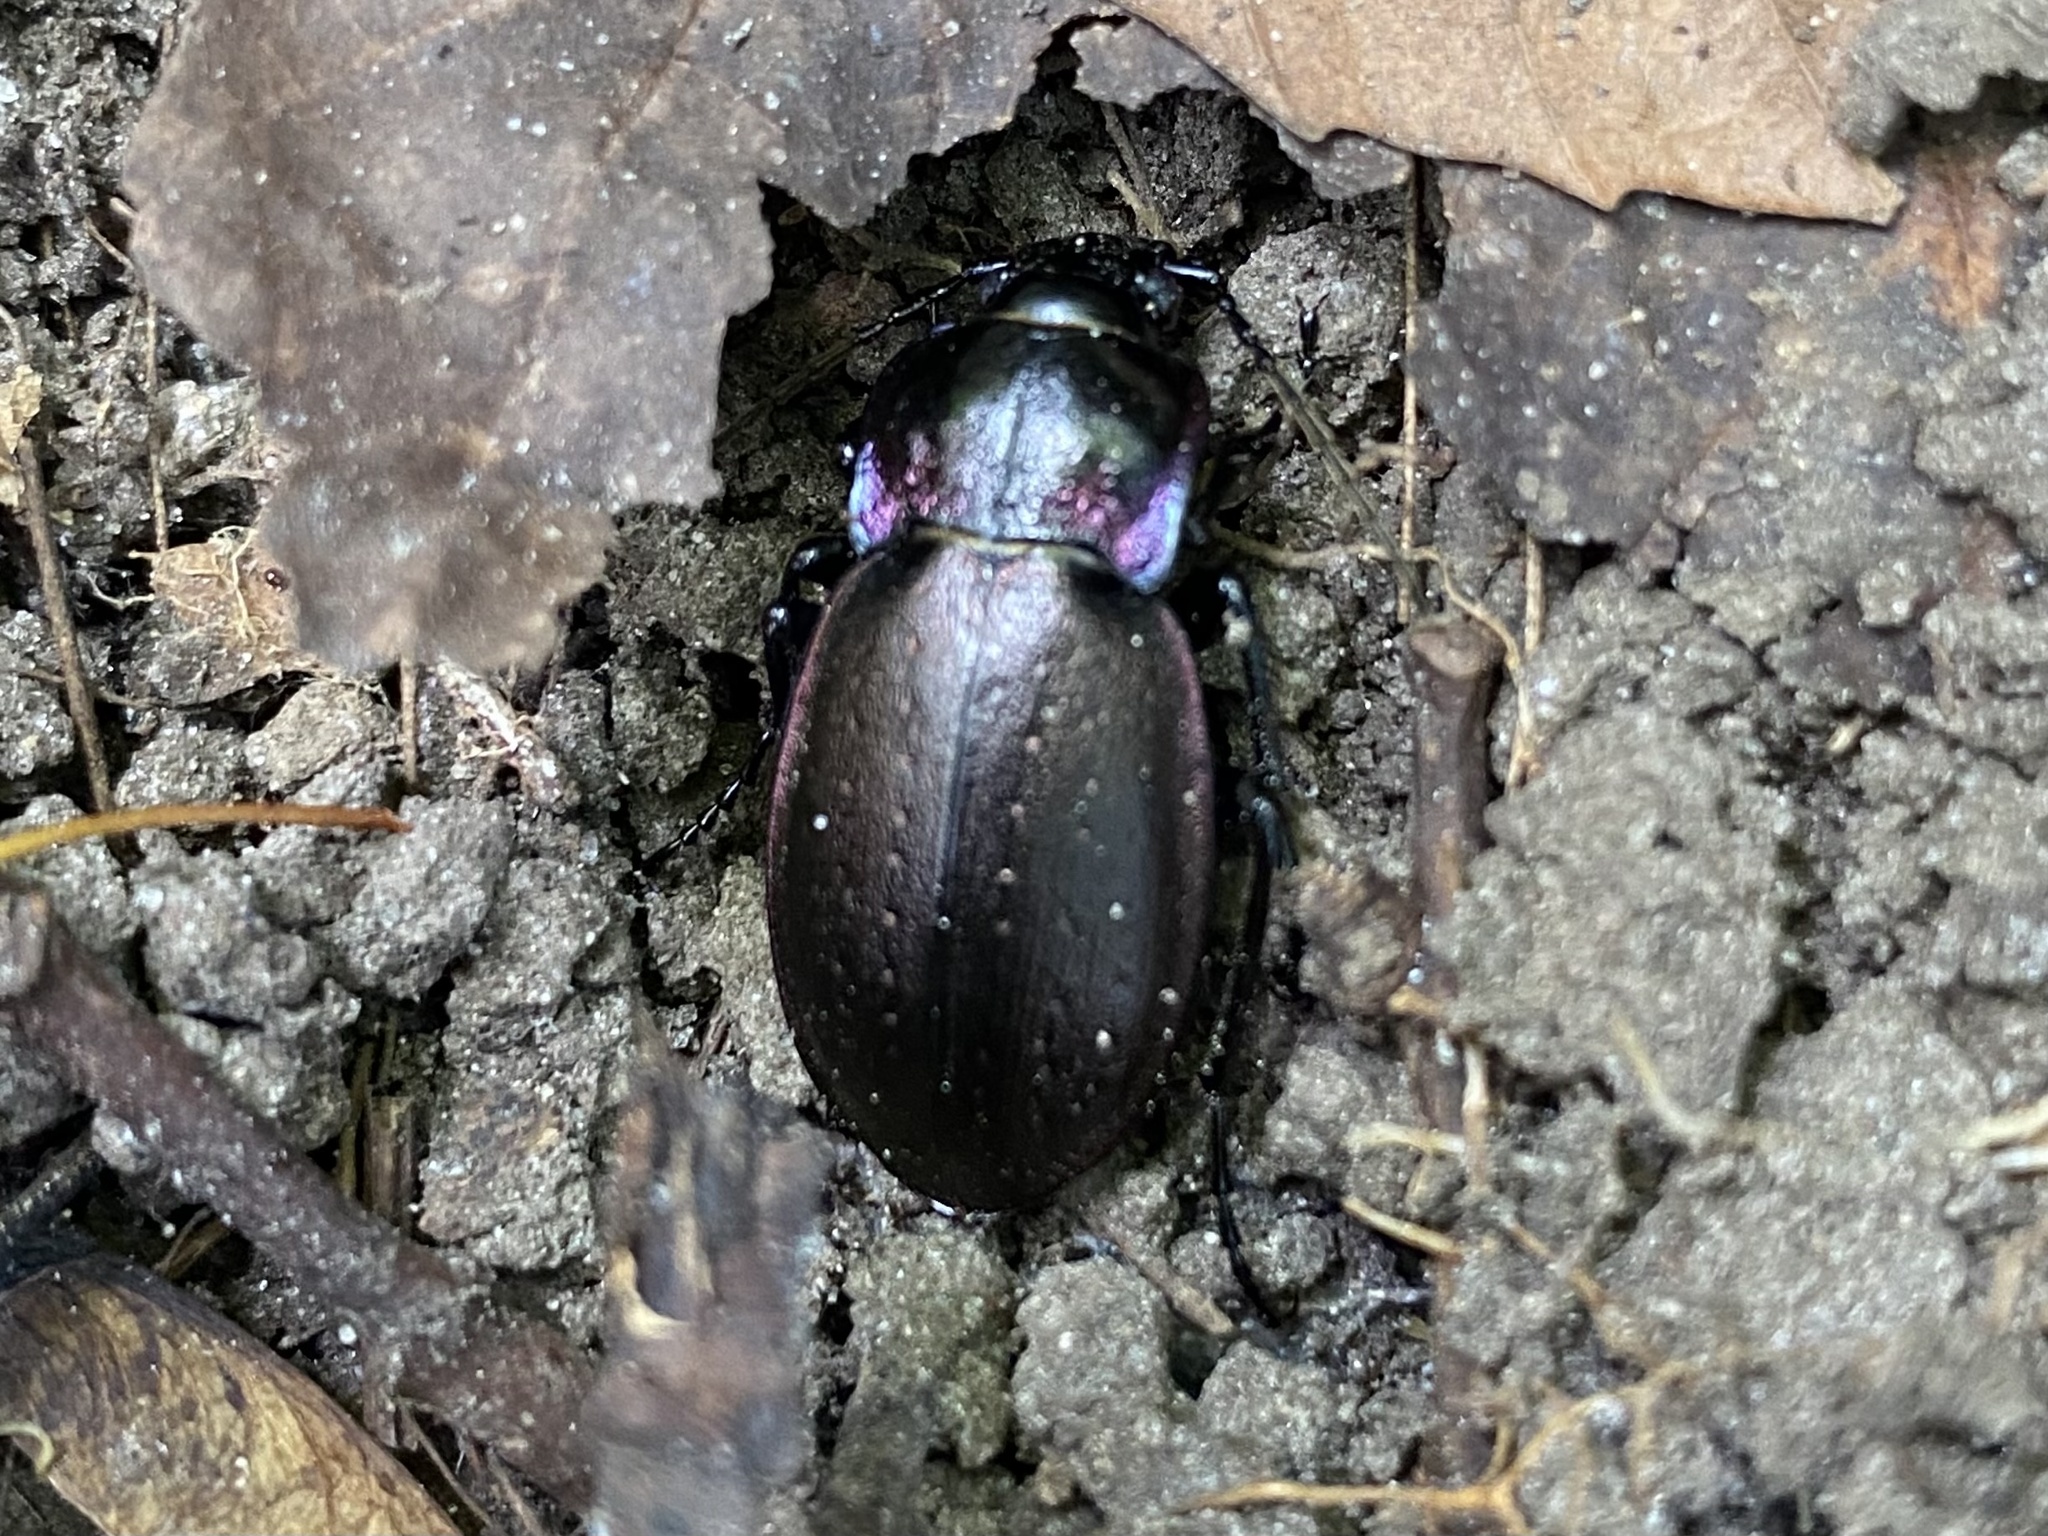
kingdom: Animalia
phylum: Arthropoda
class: Insecta
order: Coleoptera
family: Carabidae
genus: Carabus
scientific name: Carabus nemoralis
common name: European ground beetle
